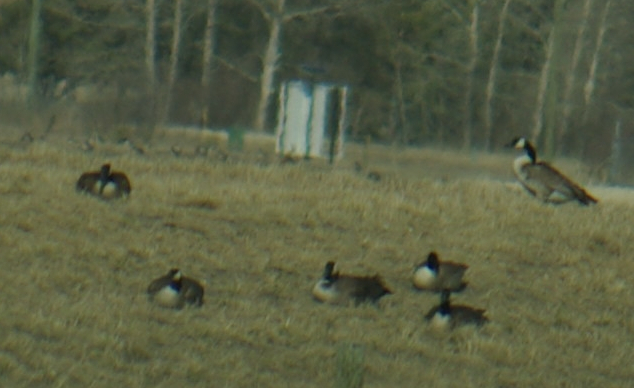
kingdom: Animalia
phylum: Chordata
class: Aves
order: Anseriformes
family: Anatidae
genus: Branta
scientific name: Branta canadensis
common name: Canada goose
